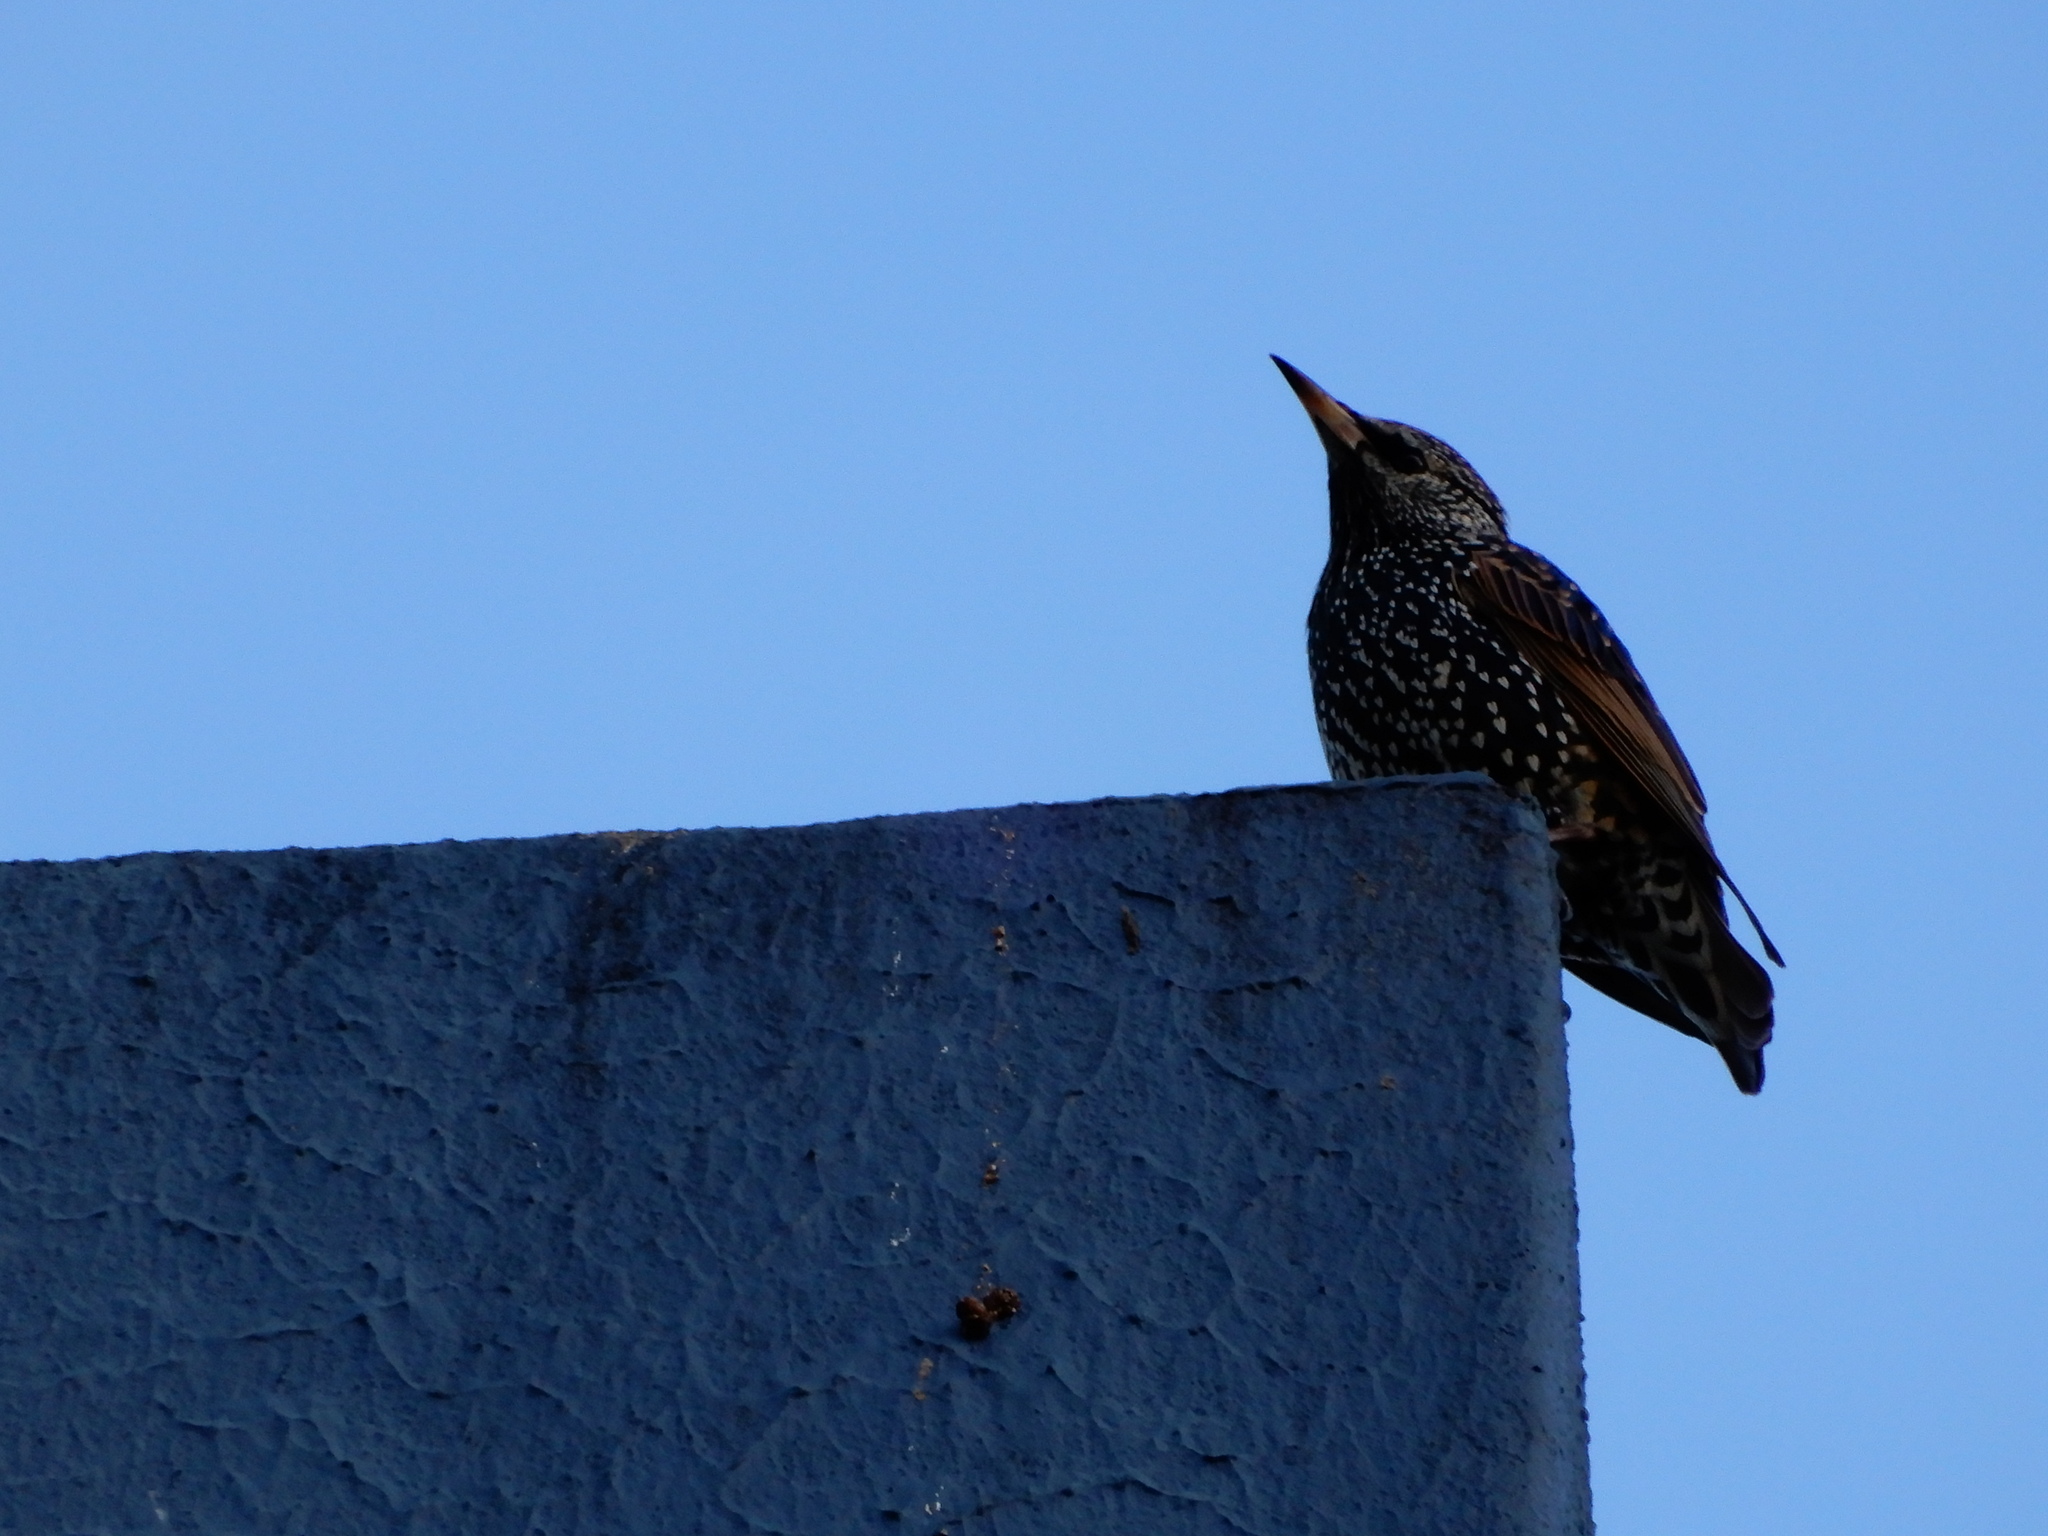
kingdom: Animalia
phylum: Chordata
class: Aves
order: Passeriformes
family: Sturnidae
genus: Sturnus
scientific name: Sturnus vulgaris
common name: Common starling
